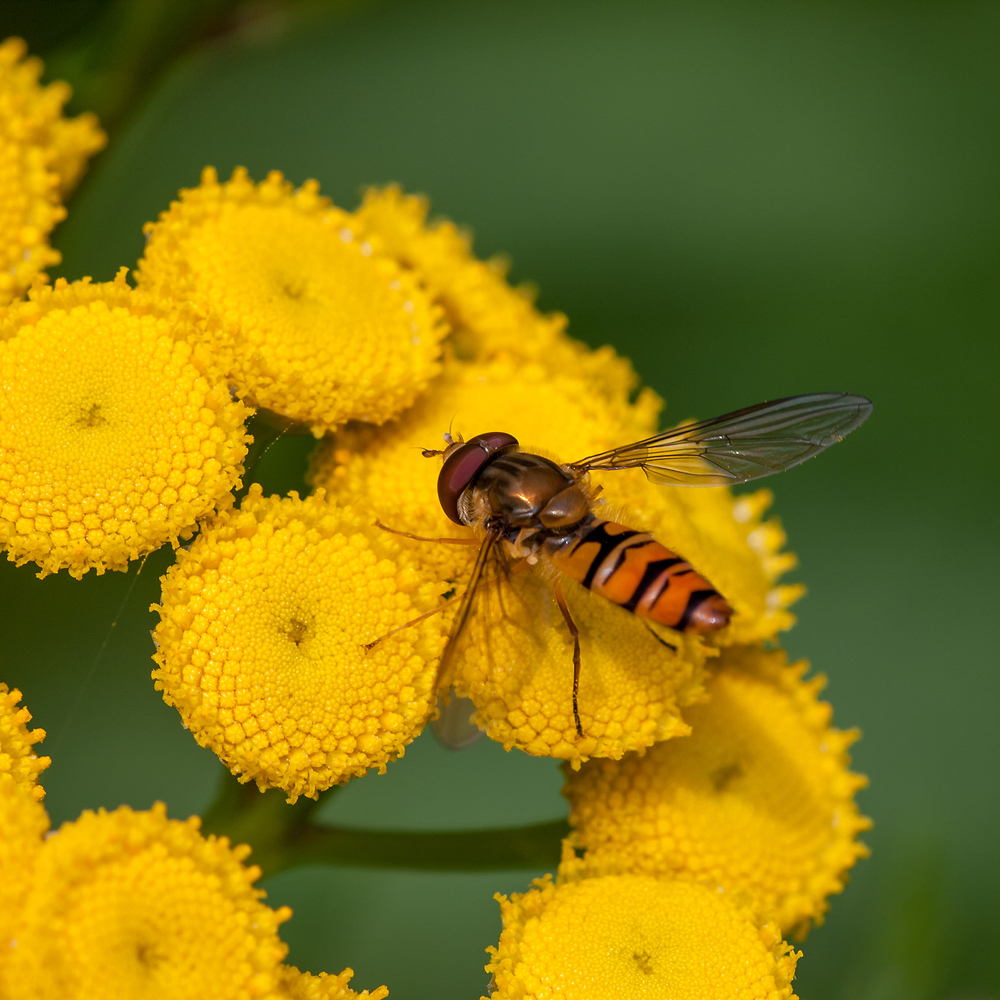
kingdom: Animalia
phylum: Arthropoda
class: Insecta
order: Diptera
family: Syrphidae
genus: Episyrphus
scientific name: Episyrphus balteatus
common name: Marmalade hoverfly
